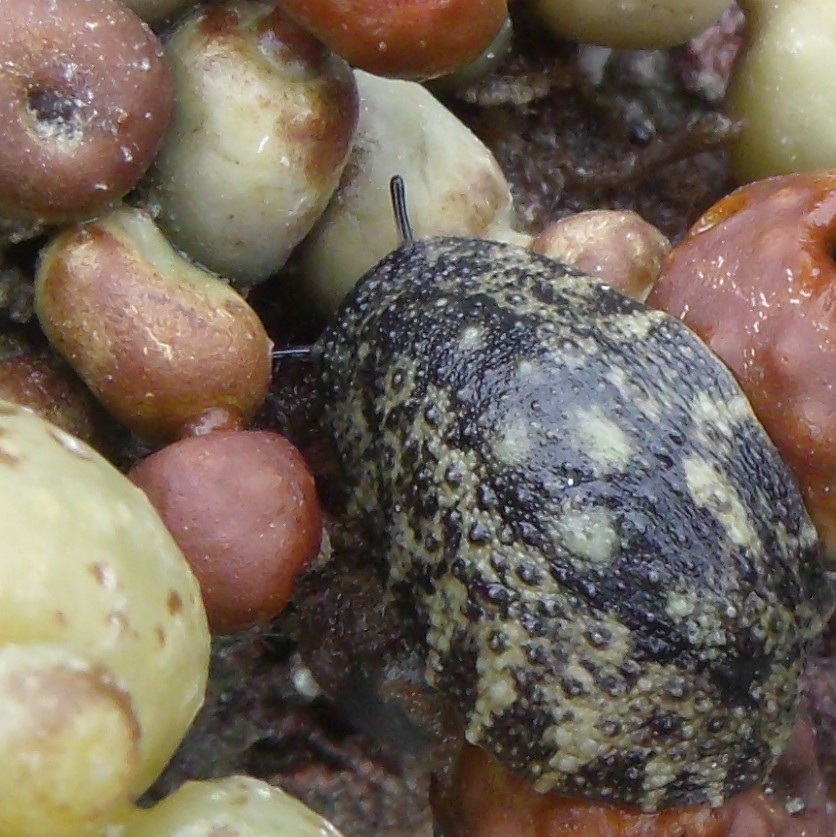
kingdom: Animalia
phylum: Mollusca
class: Gastropoda
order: Systellommatophora
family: Onchidiidae
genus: Onchidella
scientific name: Onchidella nigricans
